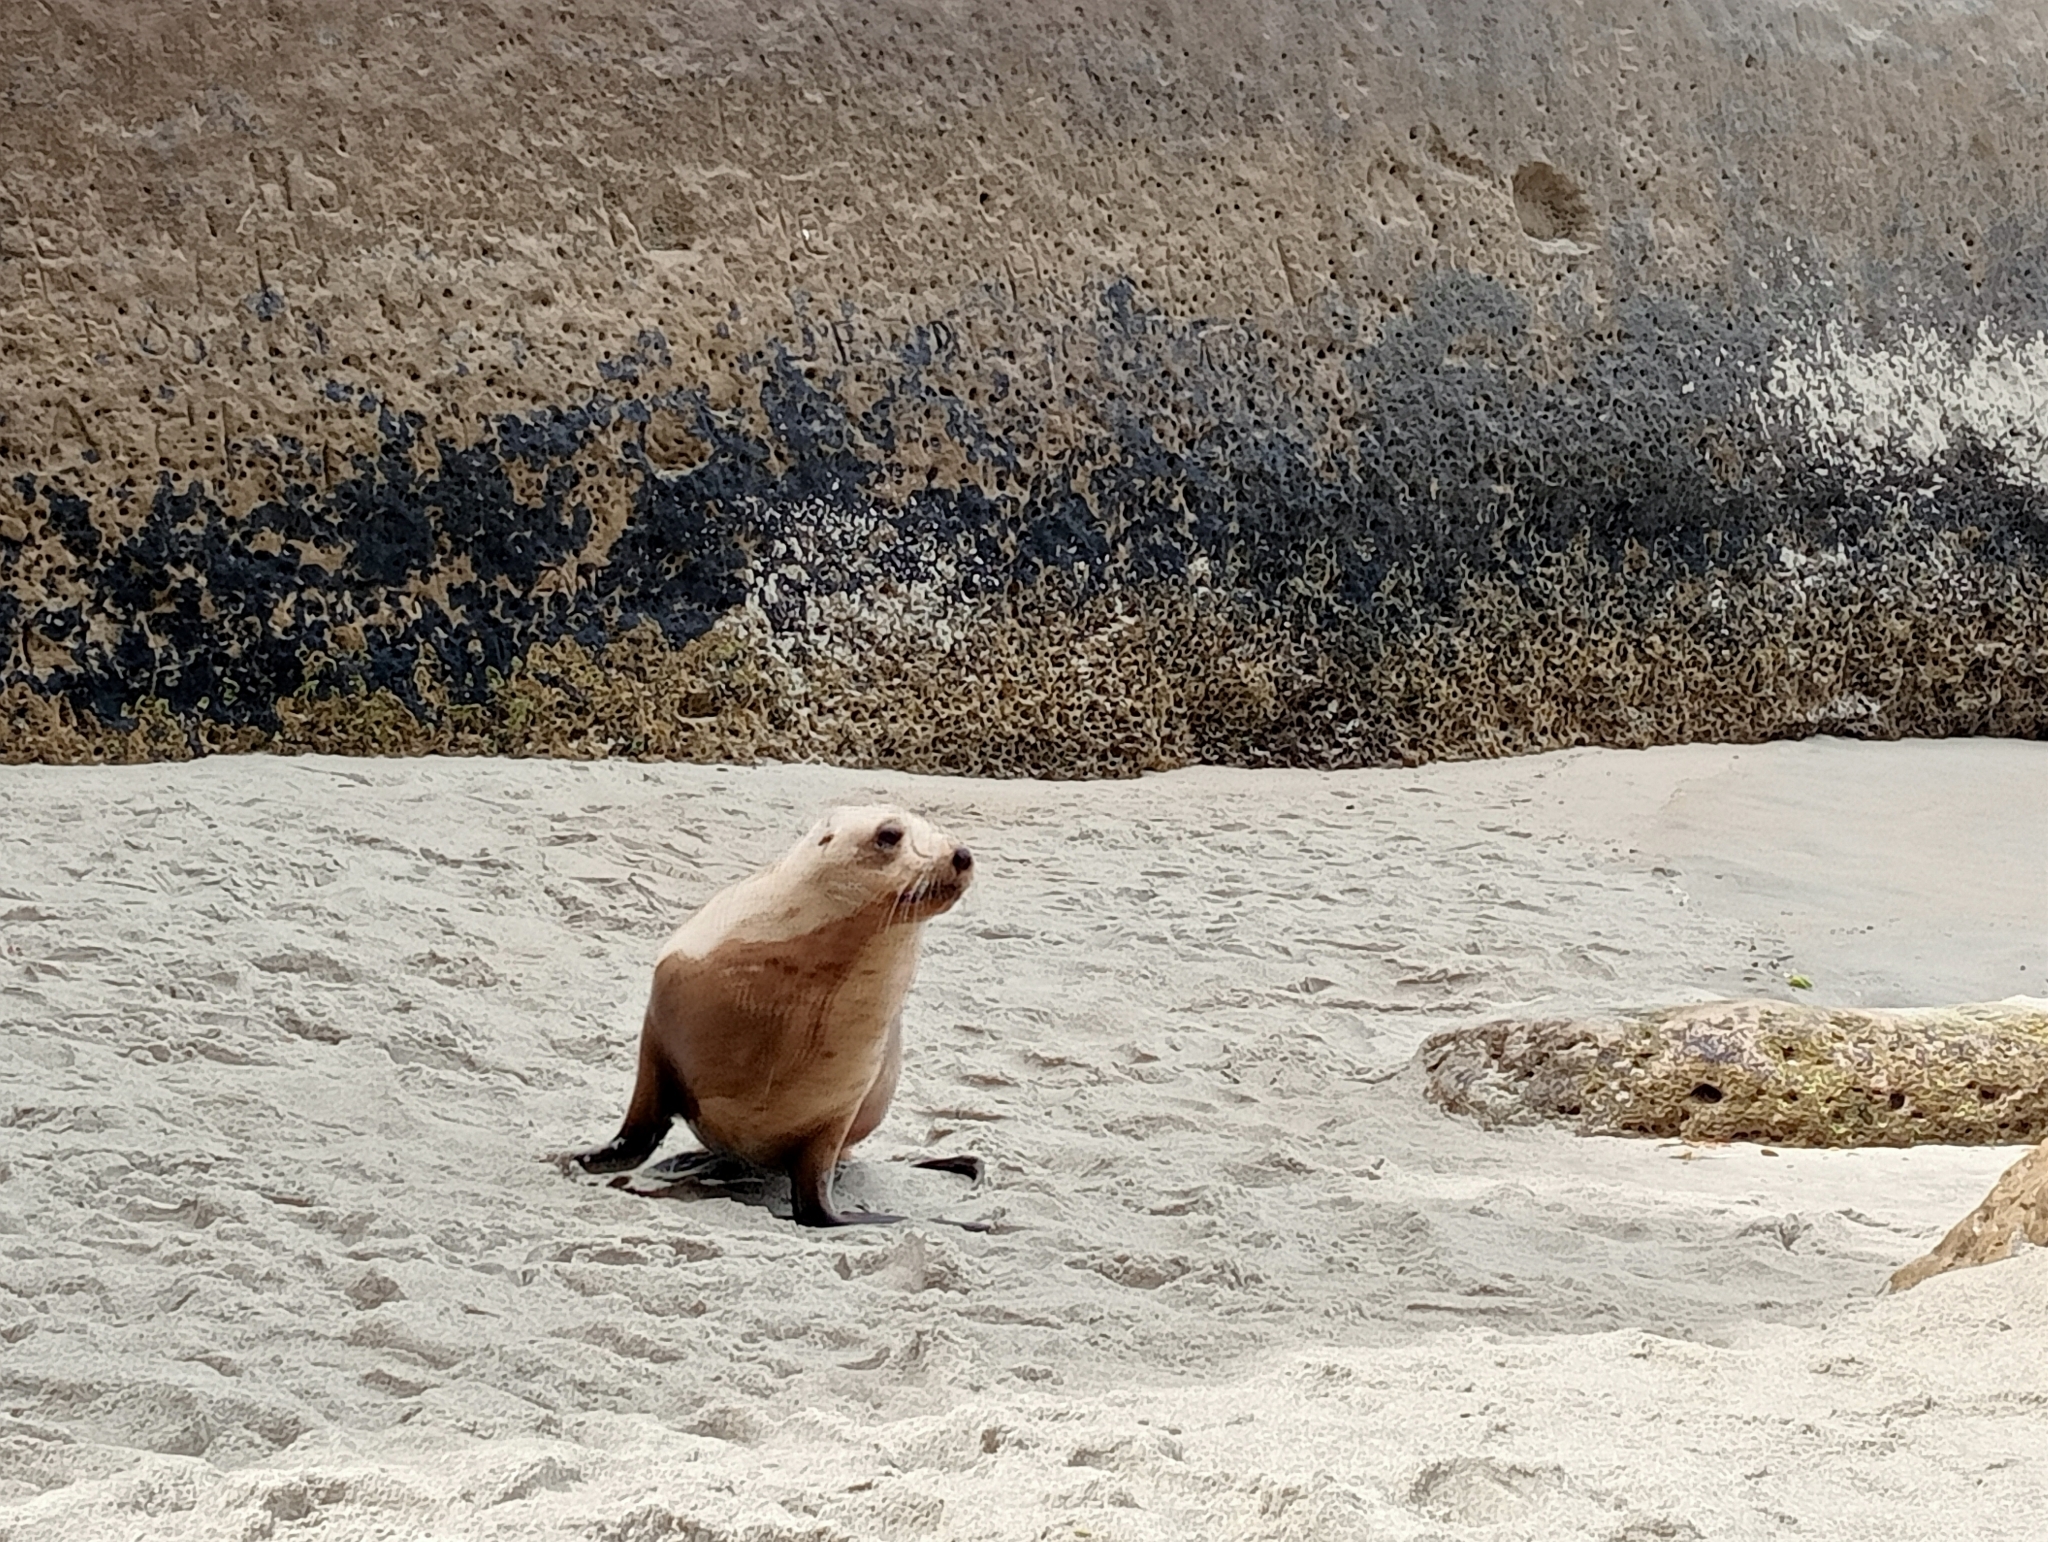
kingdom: Animalia
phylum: Chordata
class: Mammalia
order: Carnivora
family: Otariidae
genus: Phocarctos
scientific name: Phocarctos hookeri
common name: New zealand sea lion
